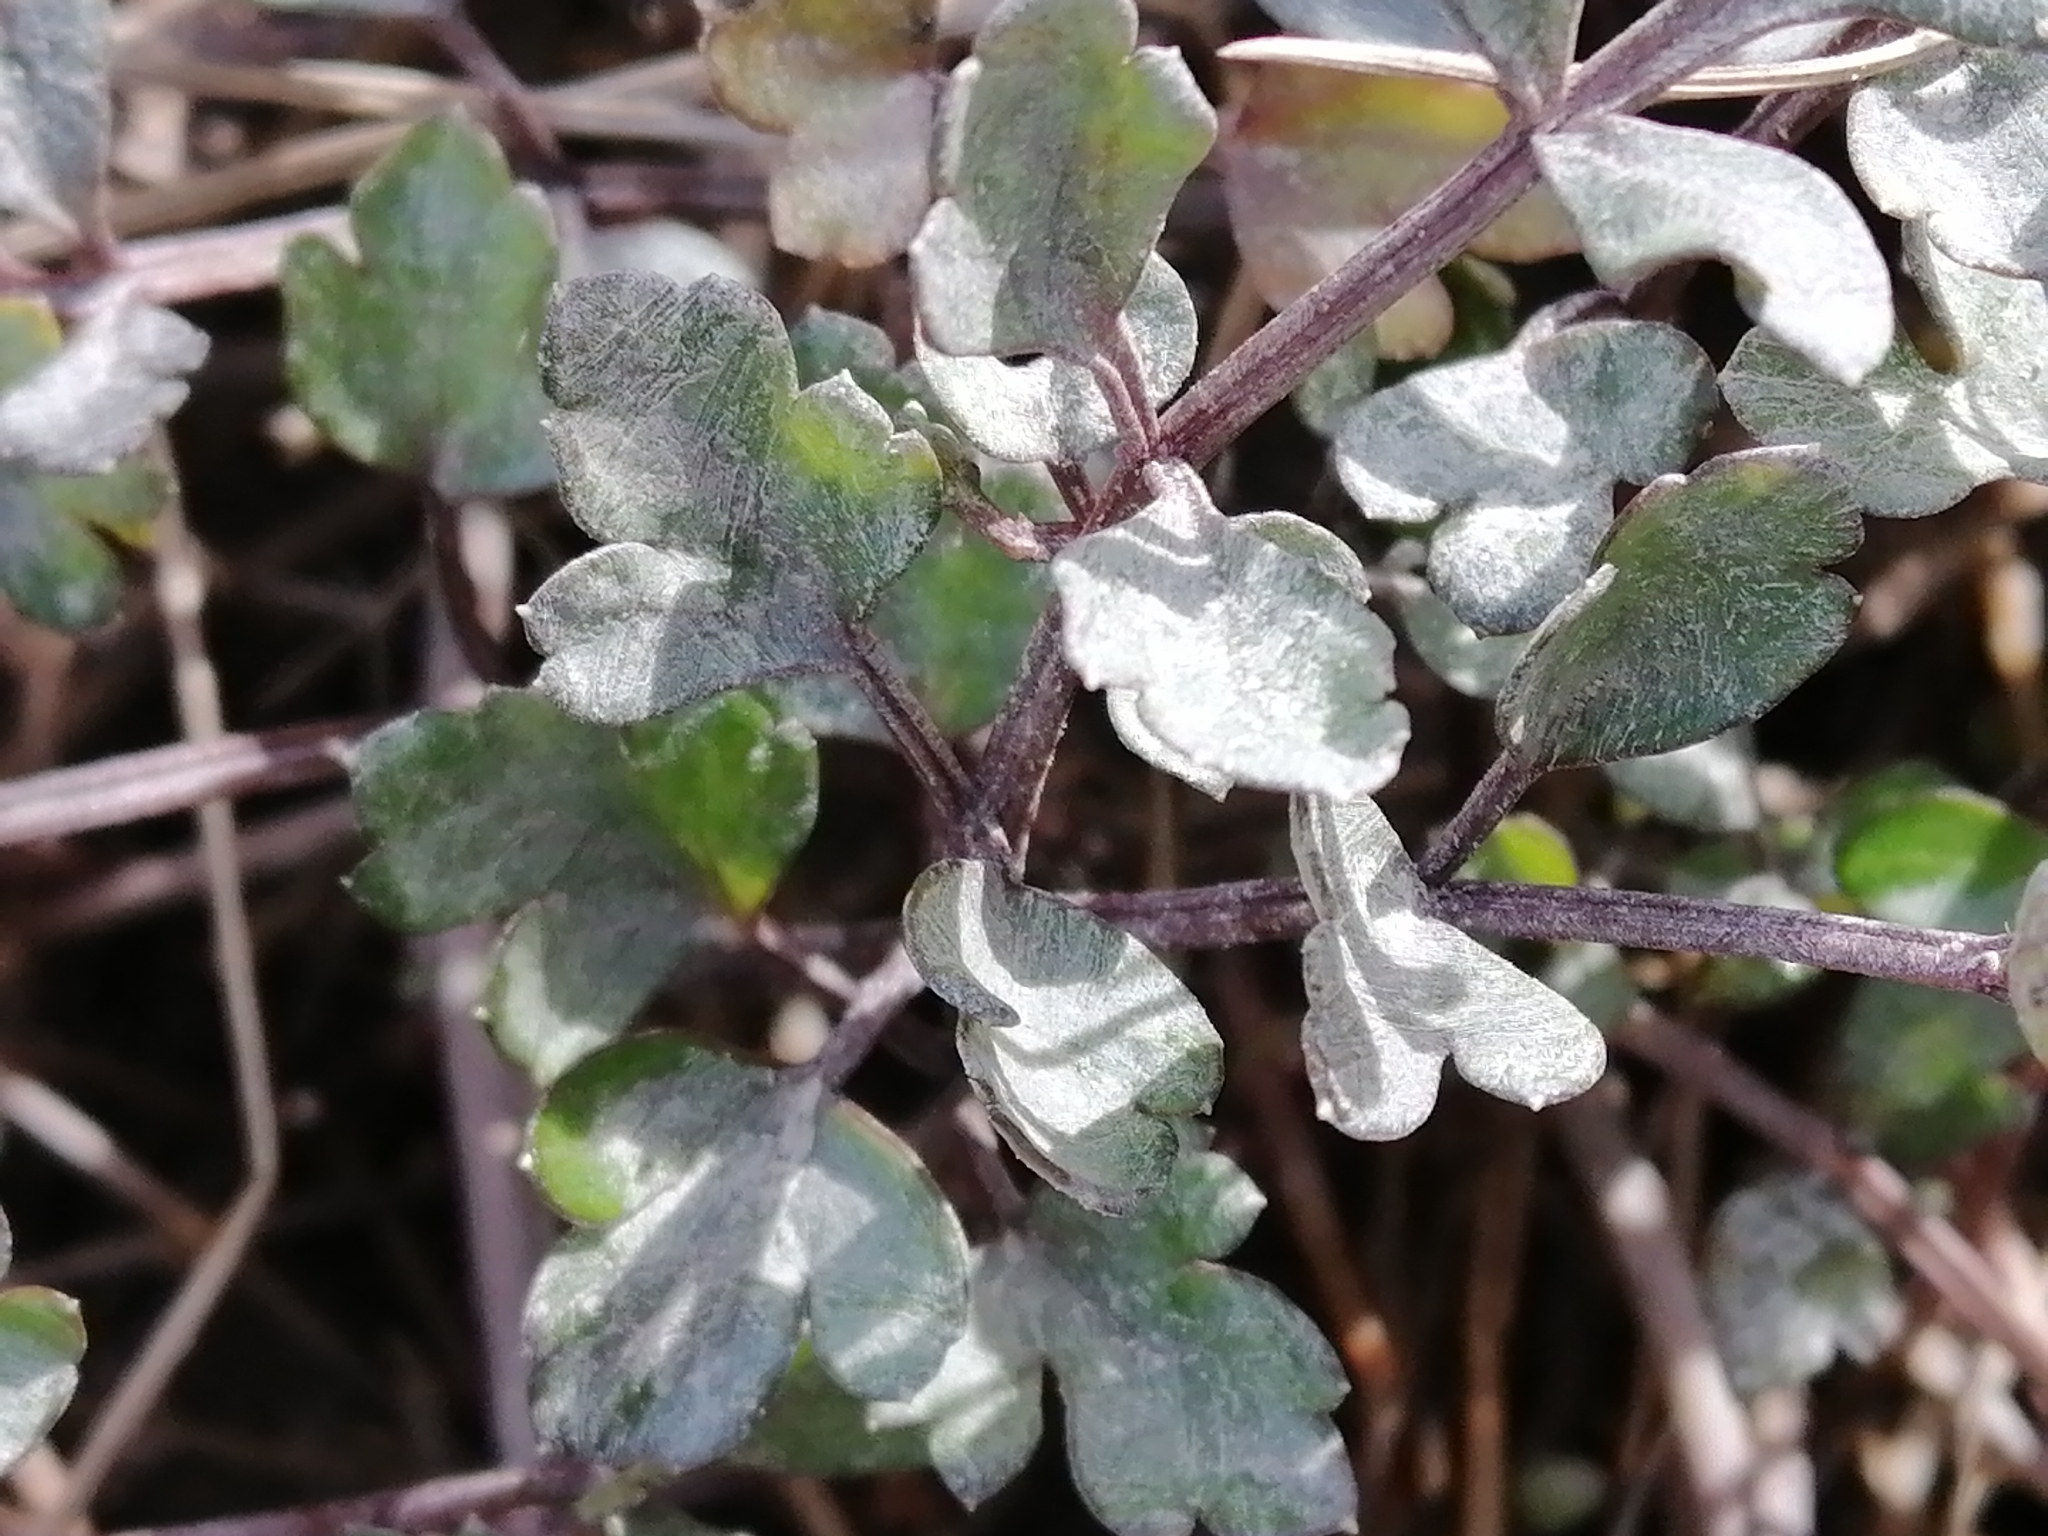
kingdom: Plantae
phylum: Tracheophyta
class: Magnoliopsida
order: Apiales
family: Apiaceae
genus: Apium
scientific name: Apium prostratum
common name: Prostrate marshwort
